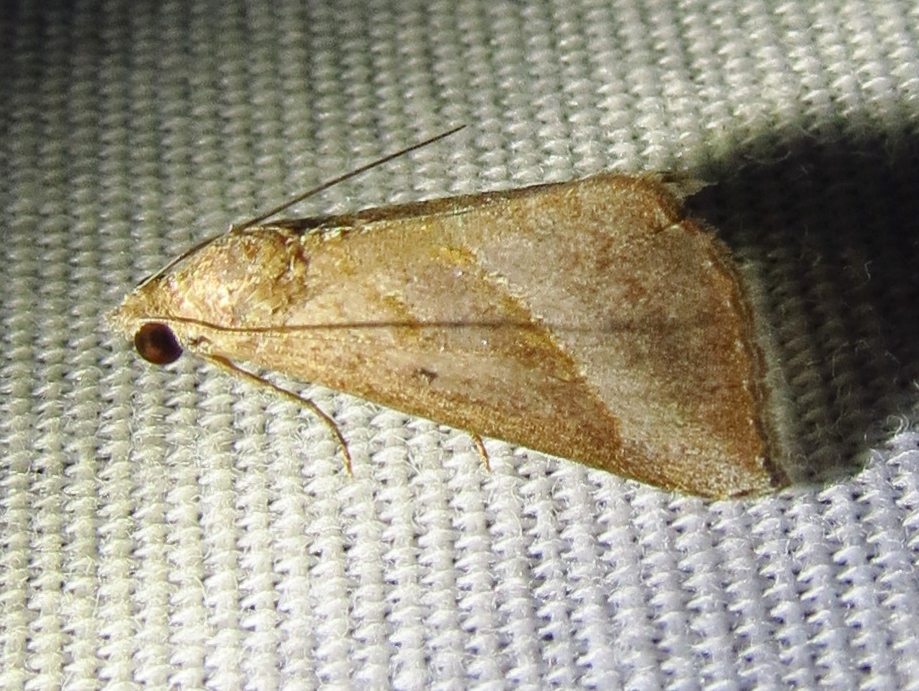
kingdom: Animalia
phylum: Arthropoda
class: Insecta
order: Lepidoptera
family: Erebidae
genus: Hypena
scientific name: Hypena degesalis
